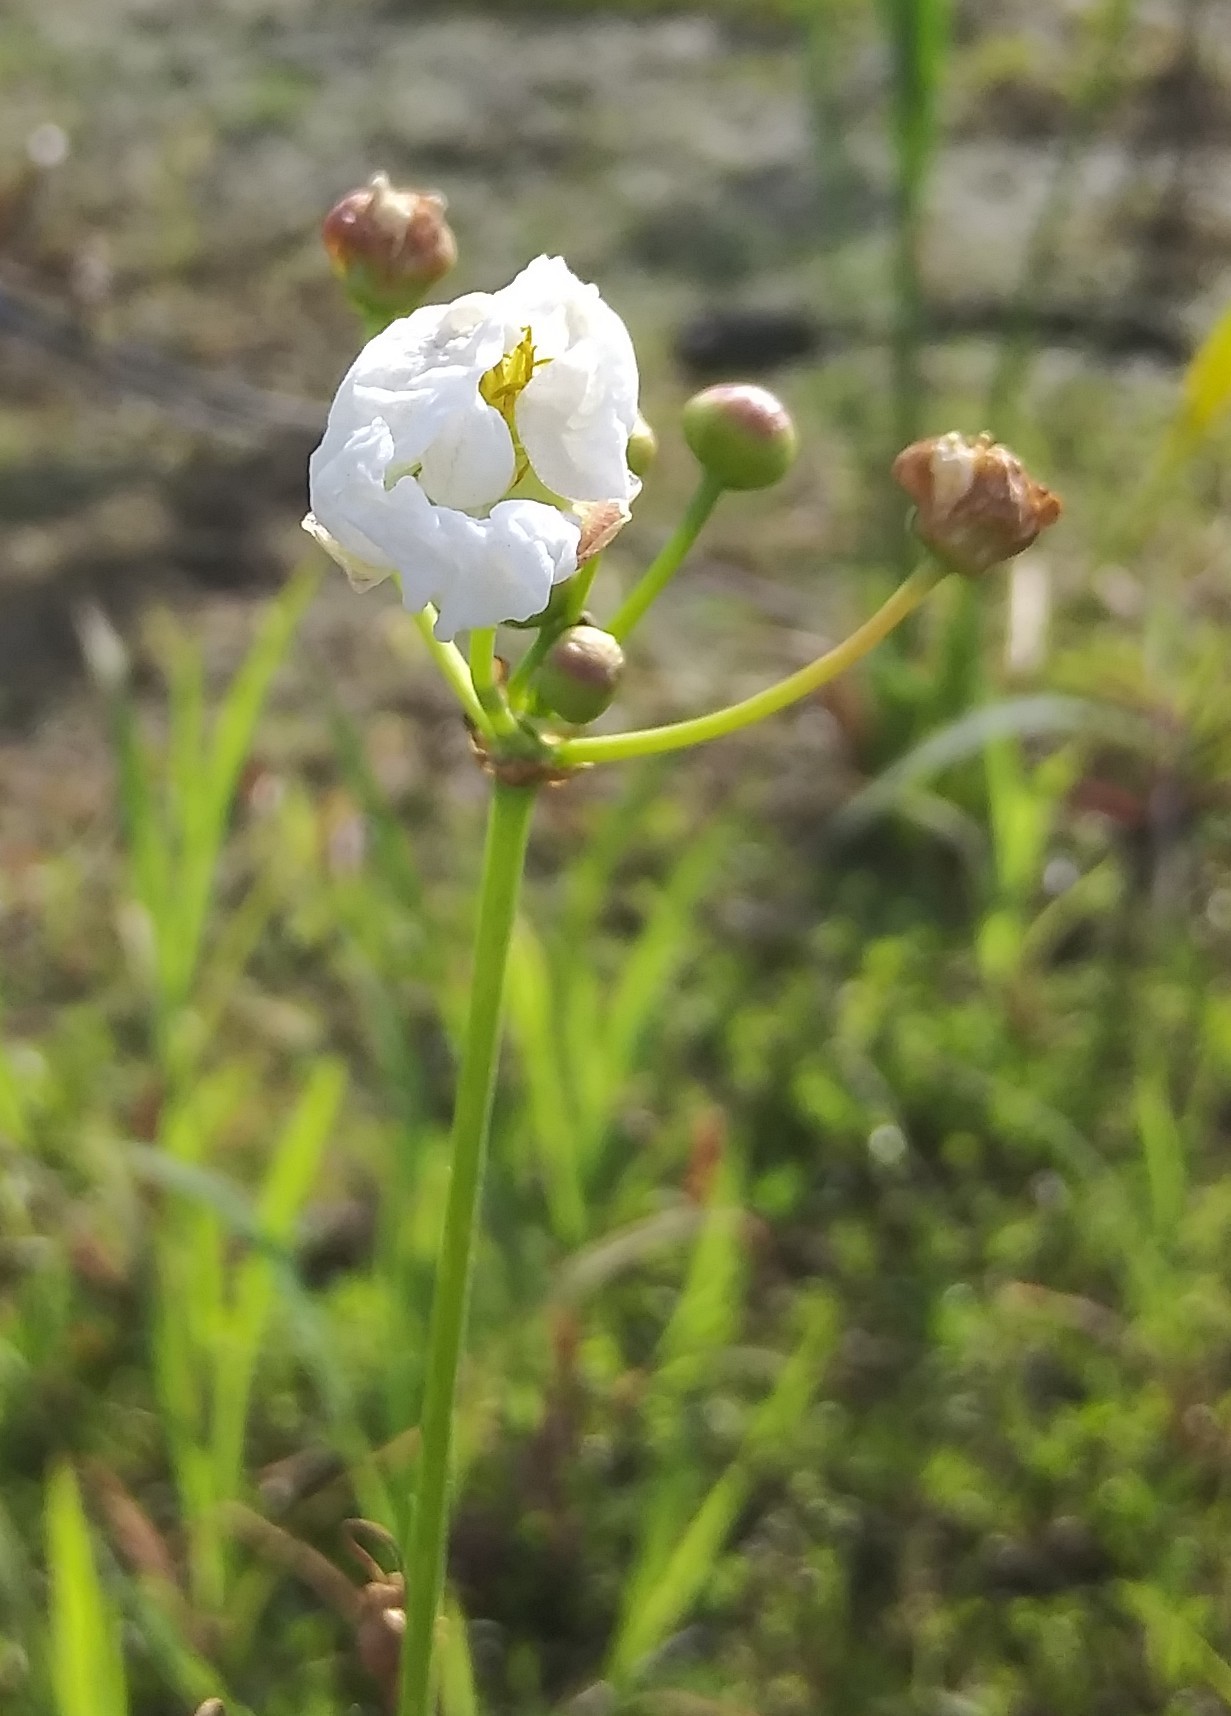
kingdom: Plantae
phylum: Tracheophyta
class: Liliopsida
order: Alismatales
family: Alismataceae
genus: Sagittaria
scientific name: Sagittaria lancifolia
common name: Lance-leaf arrowhead
